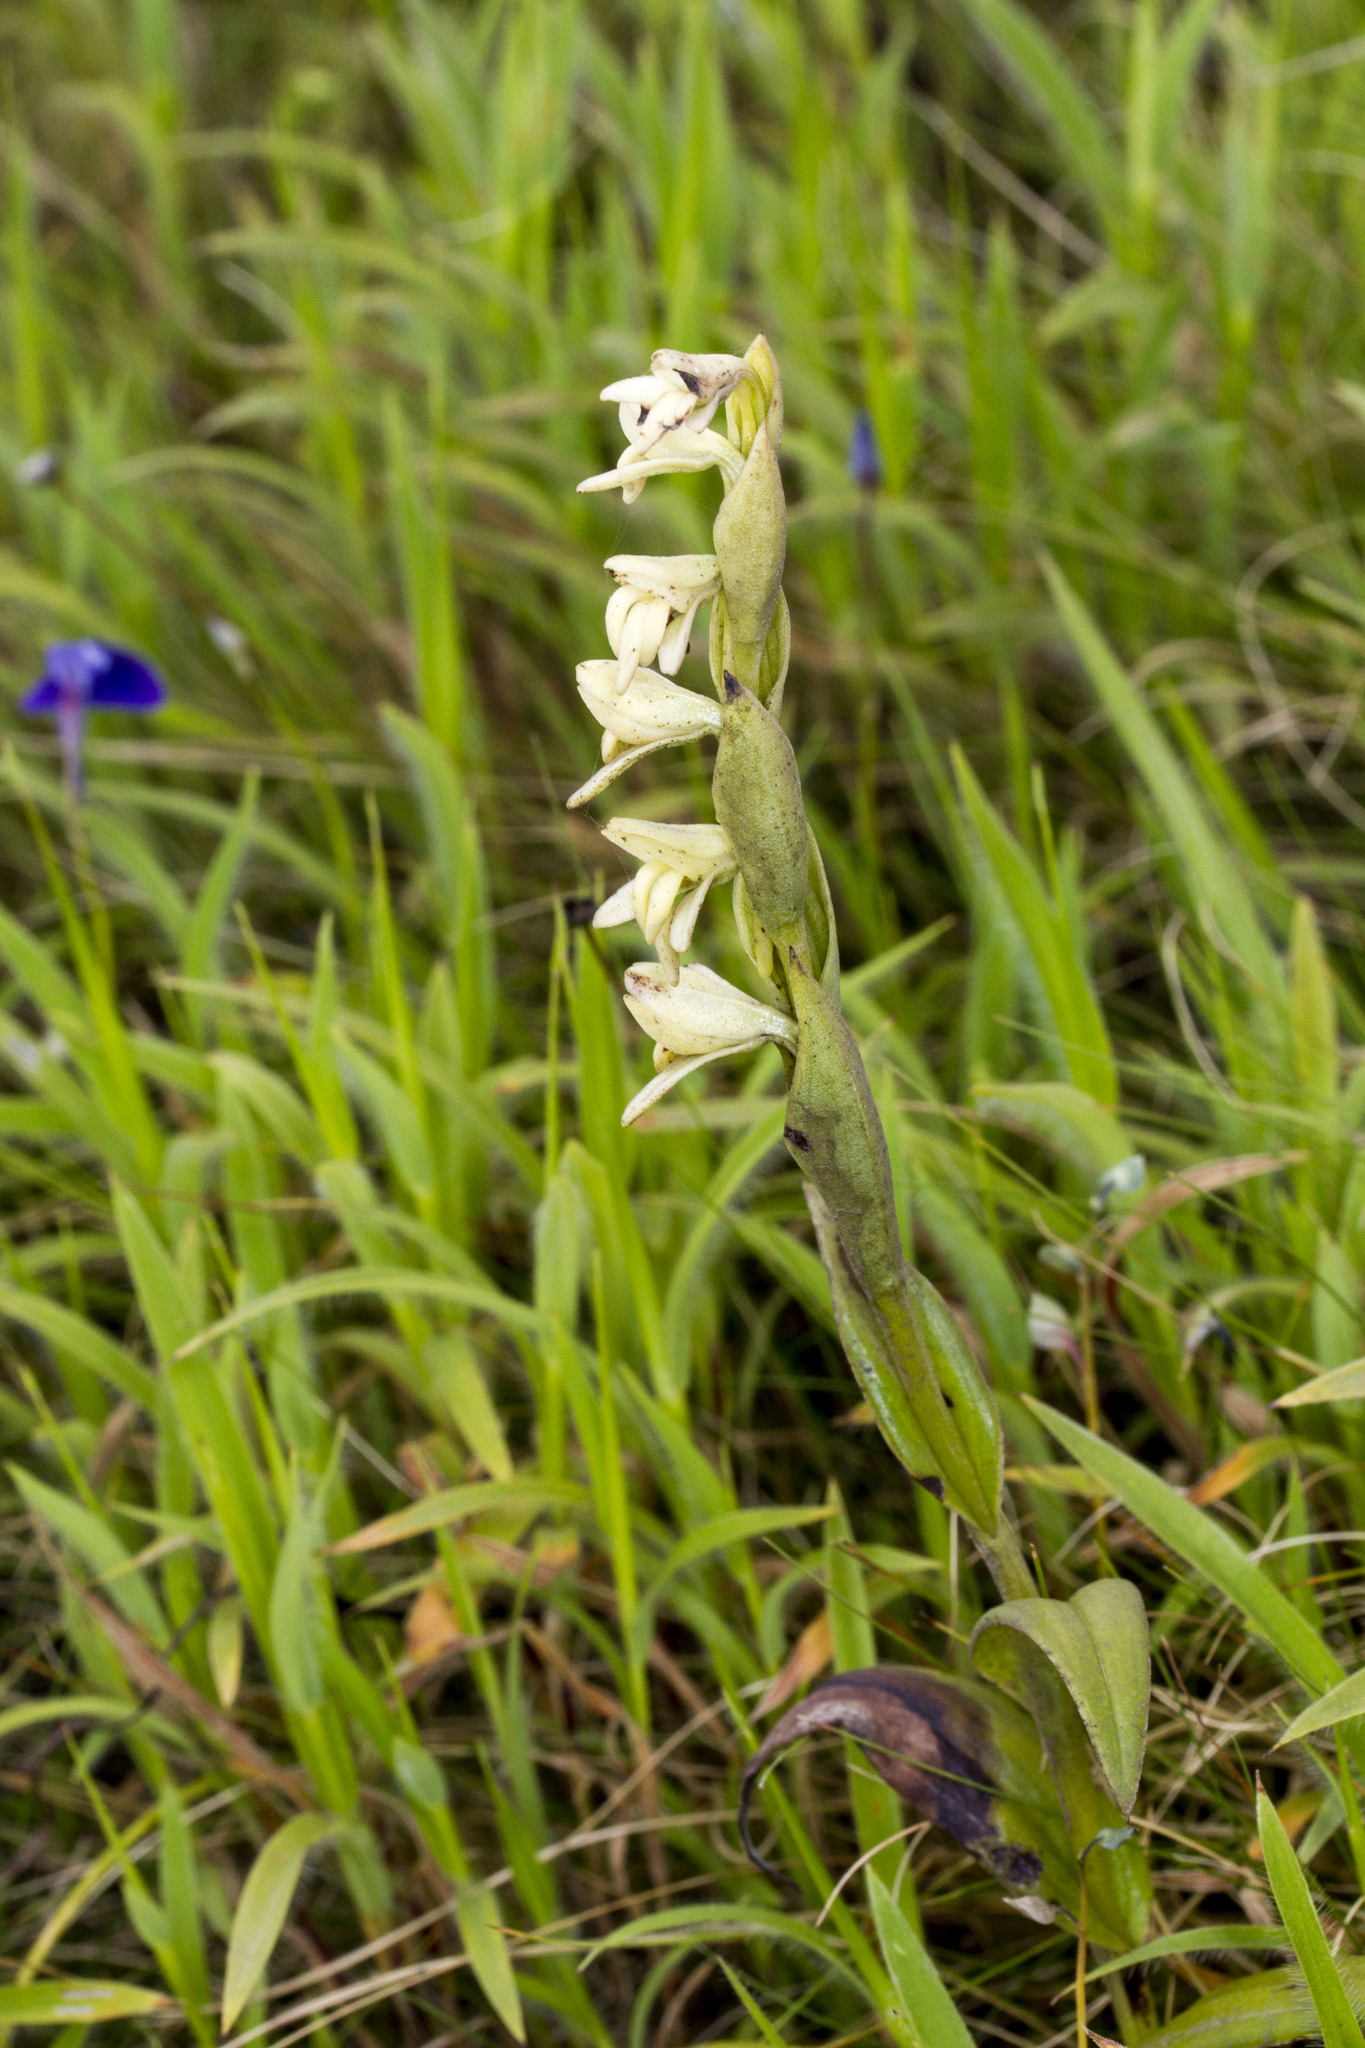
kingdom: Plantae
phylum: Tracheophyta
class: Liliopsida
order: Asparagales
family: Orchidaceae
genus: Habenaria
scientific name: Habenaria heyneana
